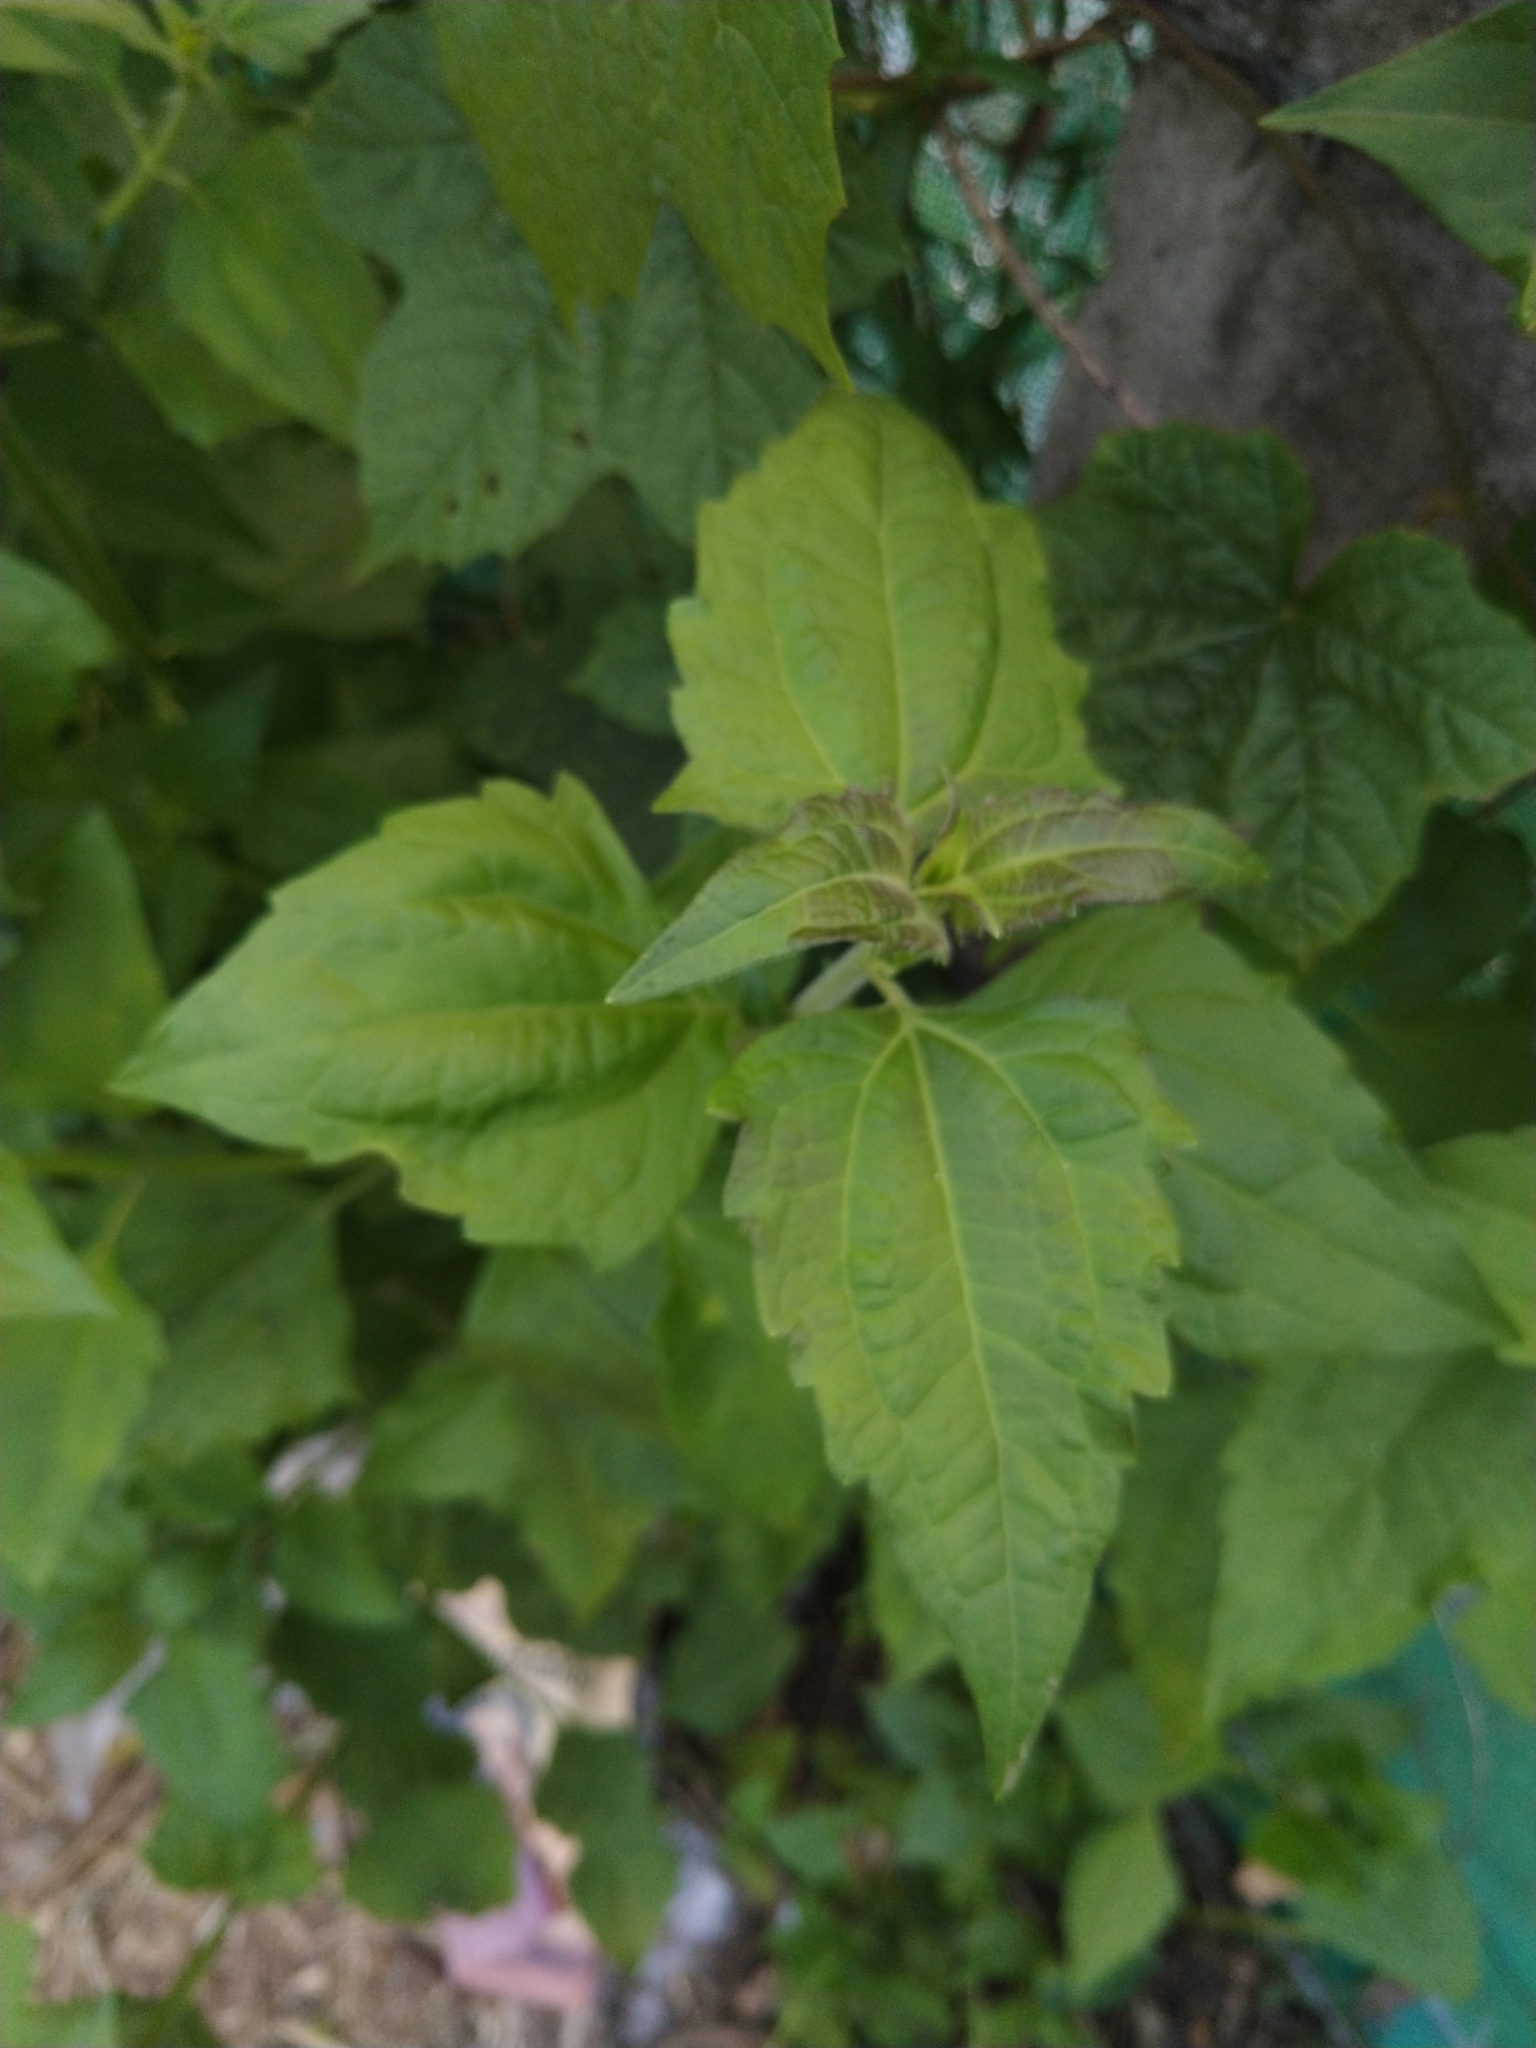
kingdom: Plantae
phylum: Tracheophyta
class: Magnoliopsida
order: Asterales
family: Asteraceae
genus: Chromolaena
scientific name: Chromolaena odorata
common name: Siamweed
